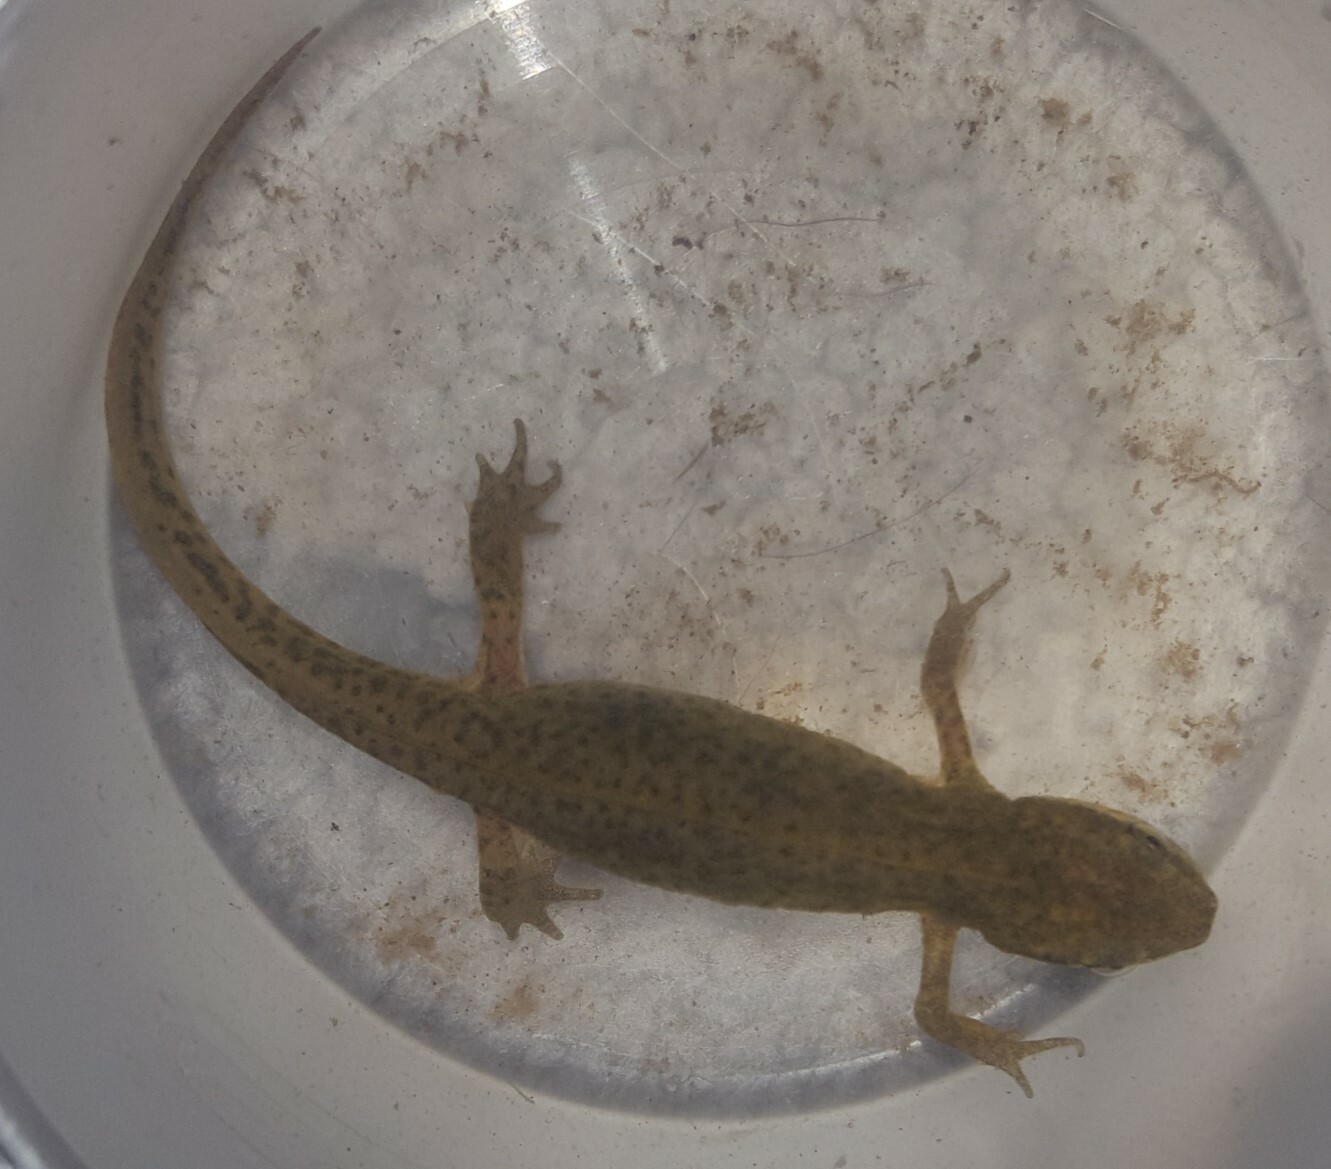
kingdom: Animalia
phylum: Chordata
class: Amphibia
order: Caudata
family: Salamandridae
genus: Lissotriton
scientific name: Lissotriton helveticus
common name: Palmate newt
